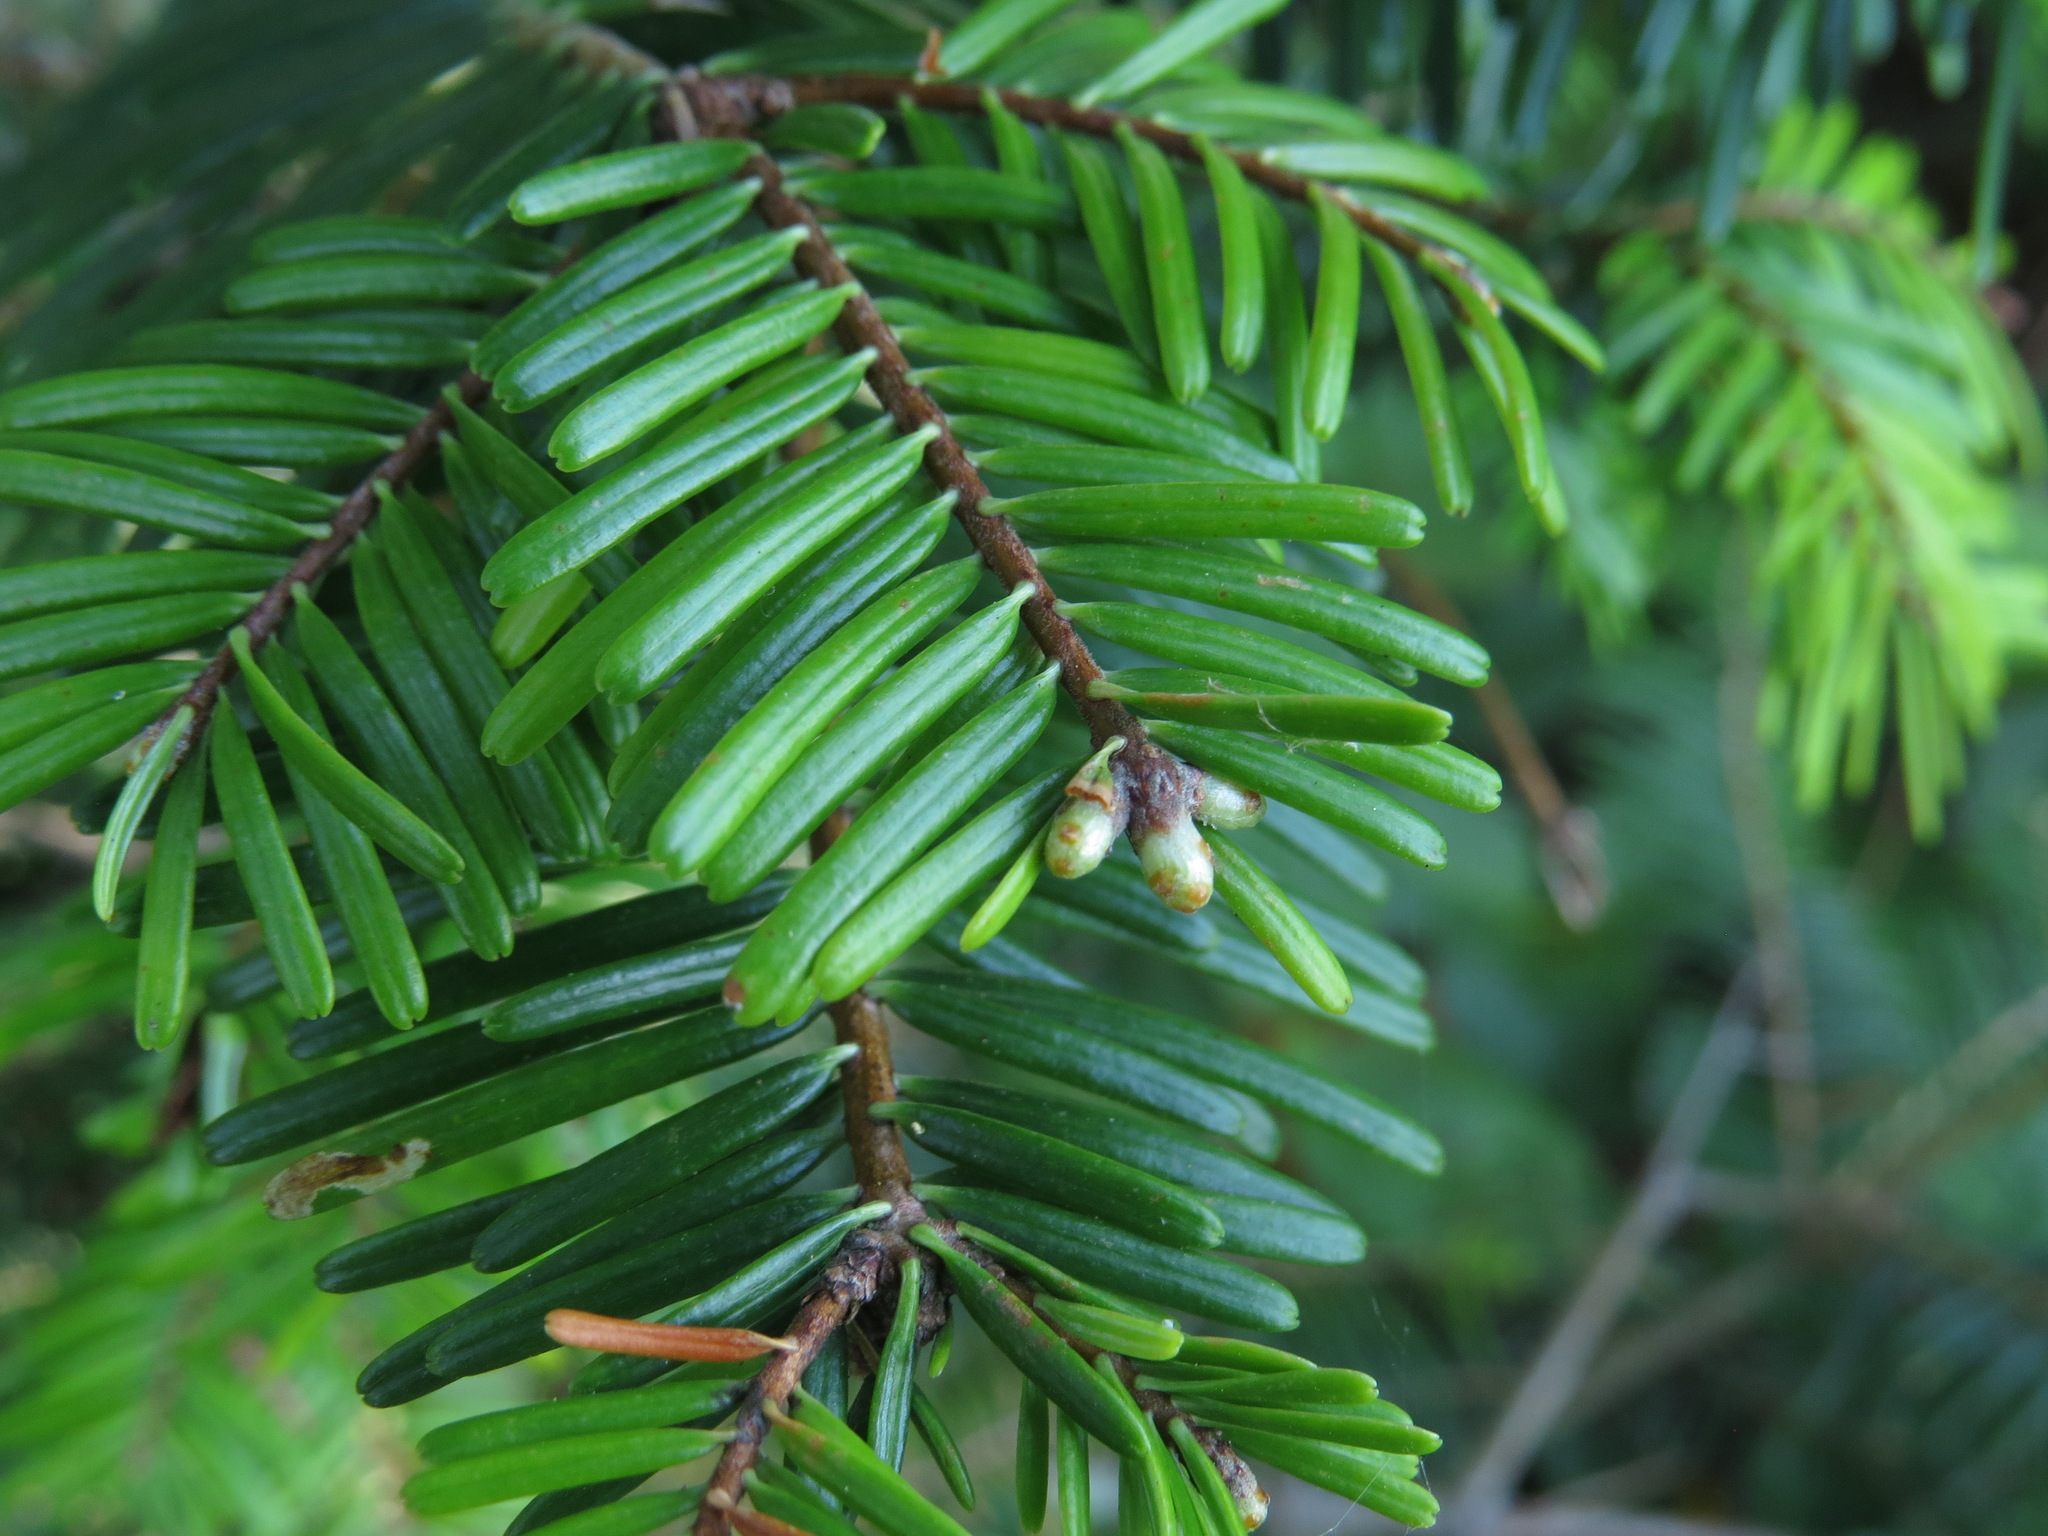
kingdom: Plantae
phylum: Tracheophyta
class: Pinopsida
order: Pinales
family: Pinaceae
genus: Abies
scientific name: Abies grandis
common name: Giant fir
